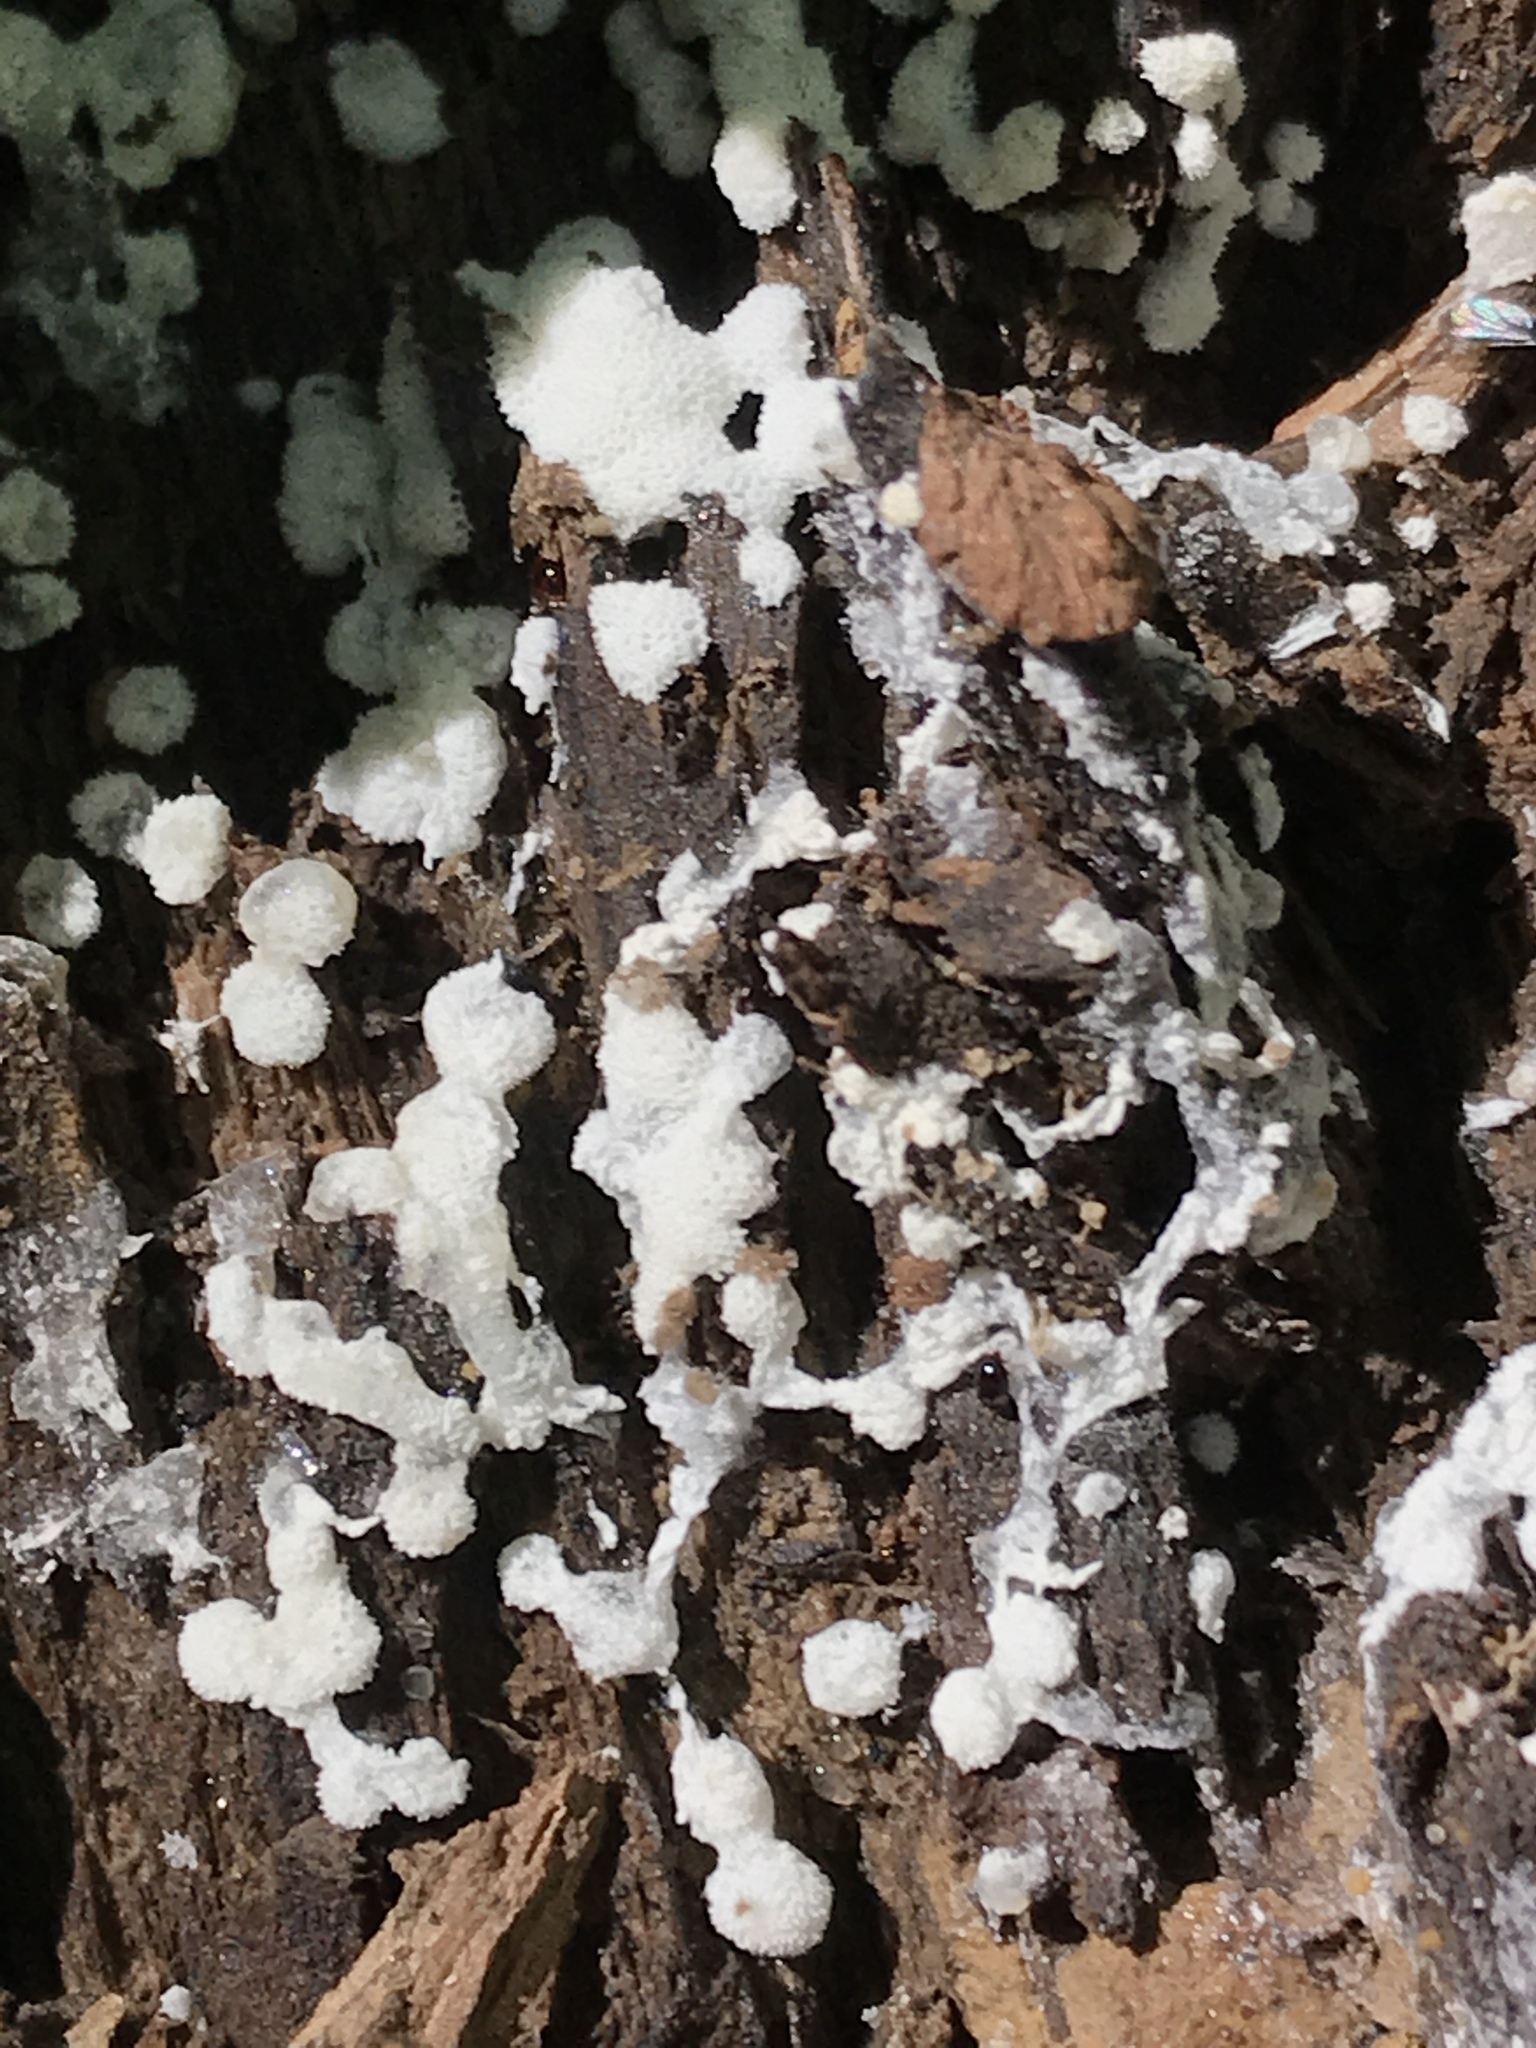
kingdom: Protozoa
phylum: Mycetozoa
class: Protosteliomycetes
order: Ceratiomyxales
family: Ceratiomyxaceae
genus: Ceratiomyxa
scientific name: Ceratiomyxa fruticulosa
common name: Honeycomb coral slime mold
